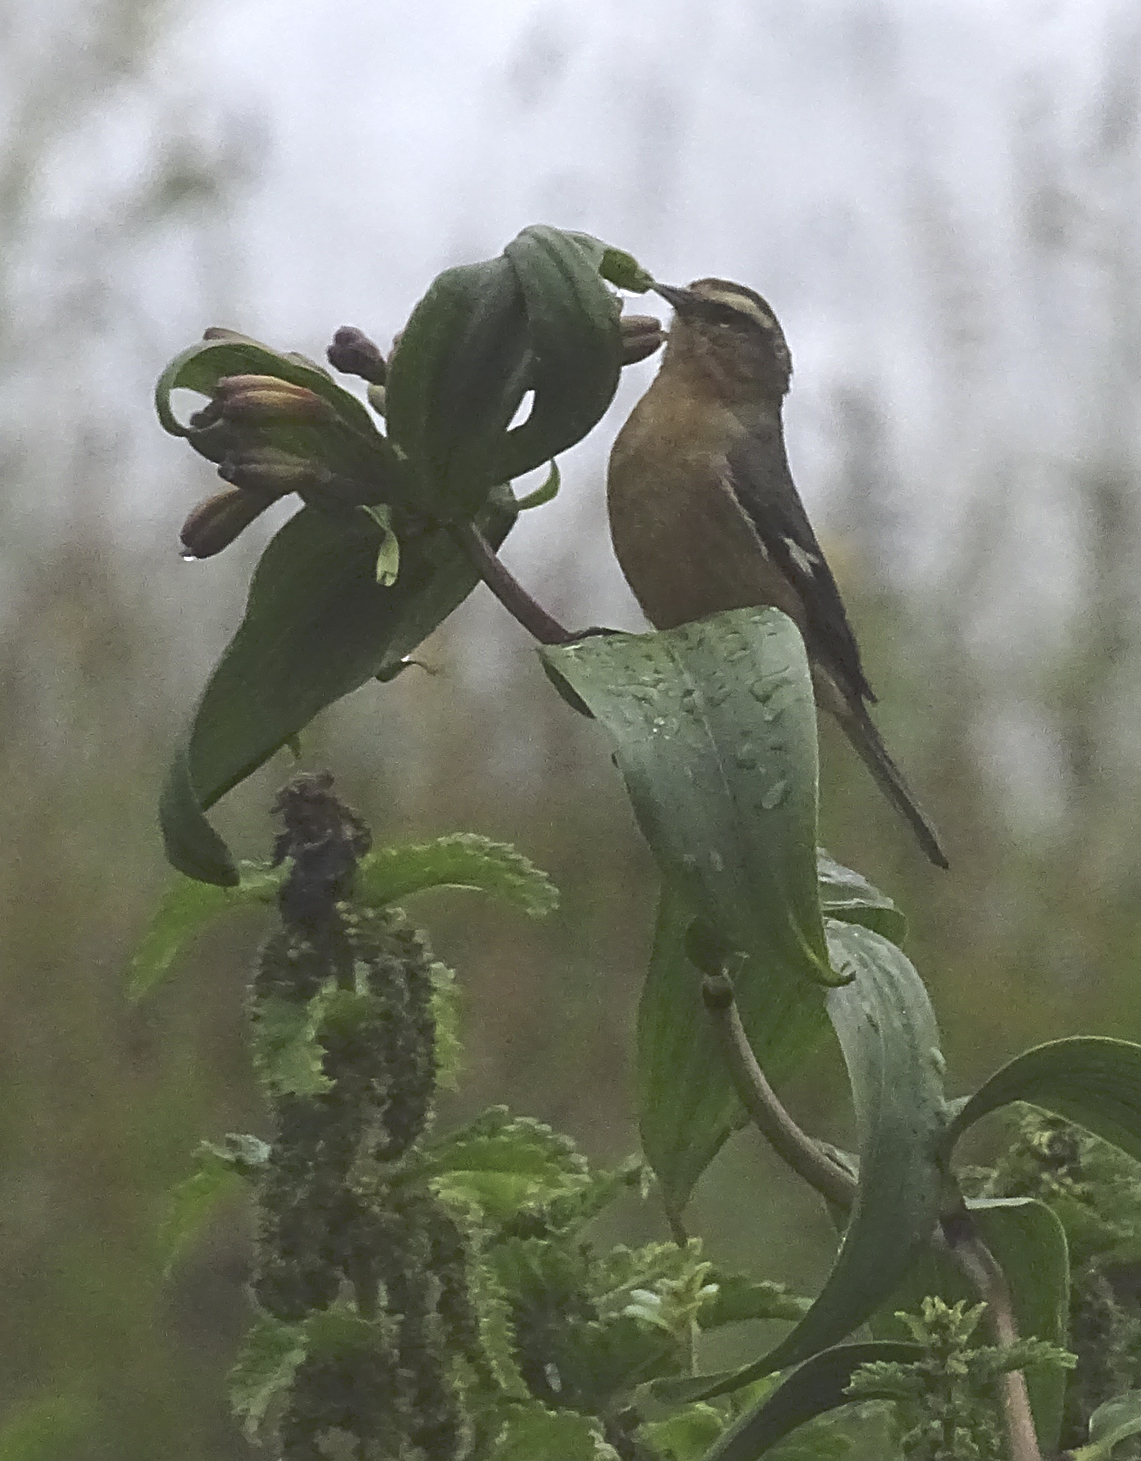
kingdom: Animalia
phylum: Chordata
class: Aves
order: Passeriformes
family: Thraupidae
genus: Conirostrum
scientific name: Conirostrum cinereum
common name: Cinereous conebill
